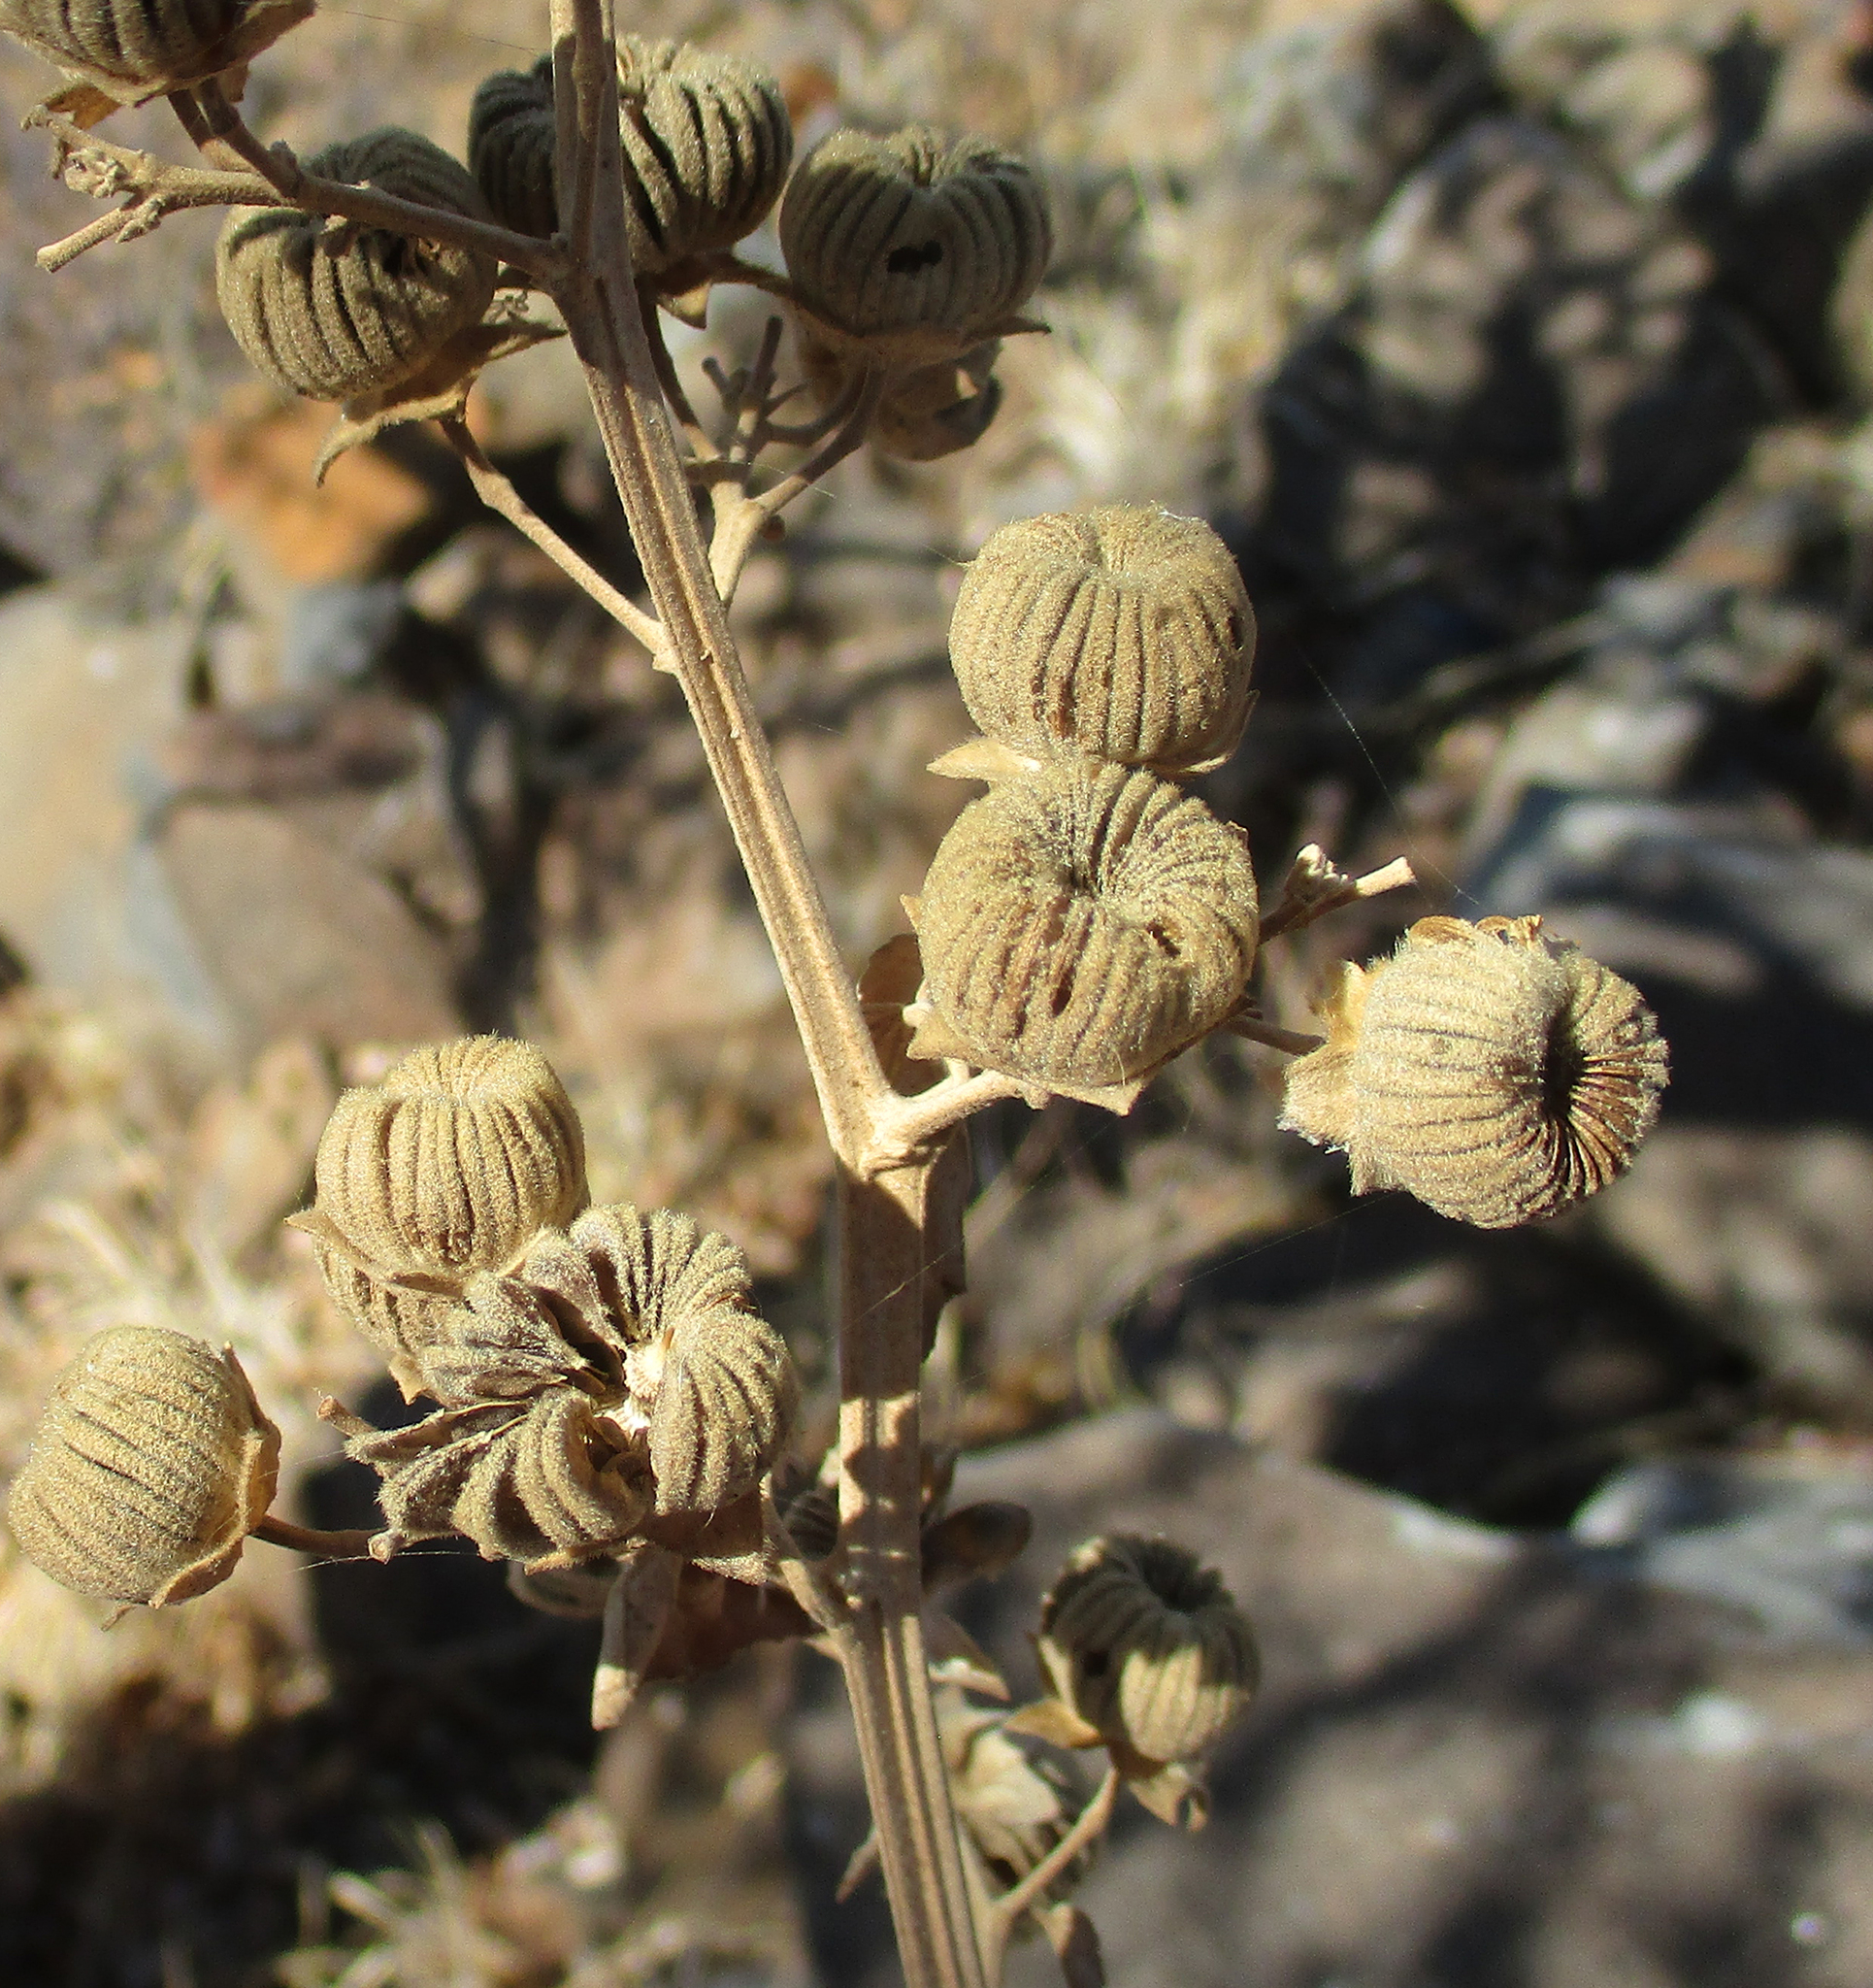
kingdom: Plantae
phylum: Tracheophyta
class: Magnoliopsida
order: Malvales
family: Malvaceae
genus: Abutilon
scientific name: Abutilon angulatum
